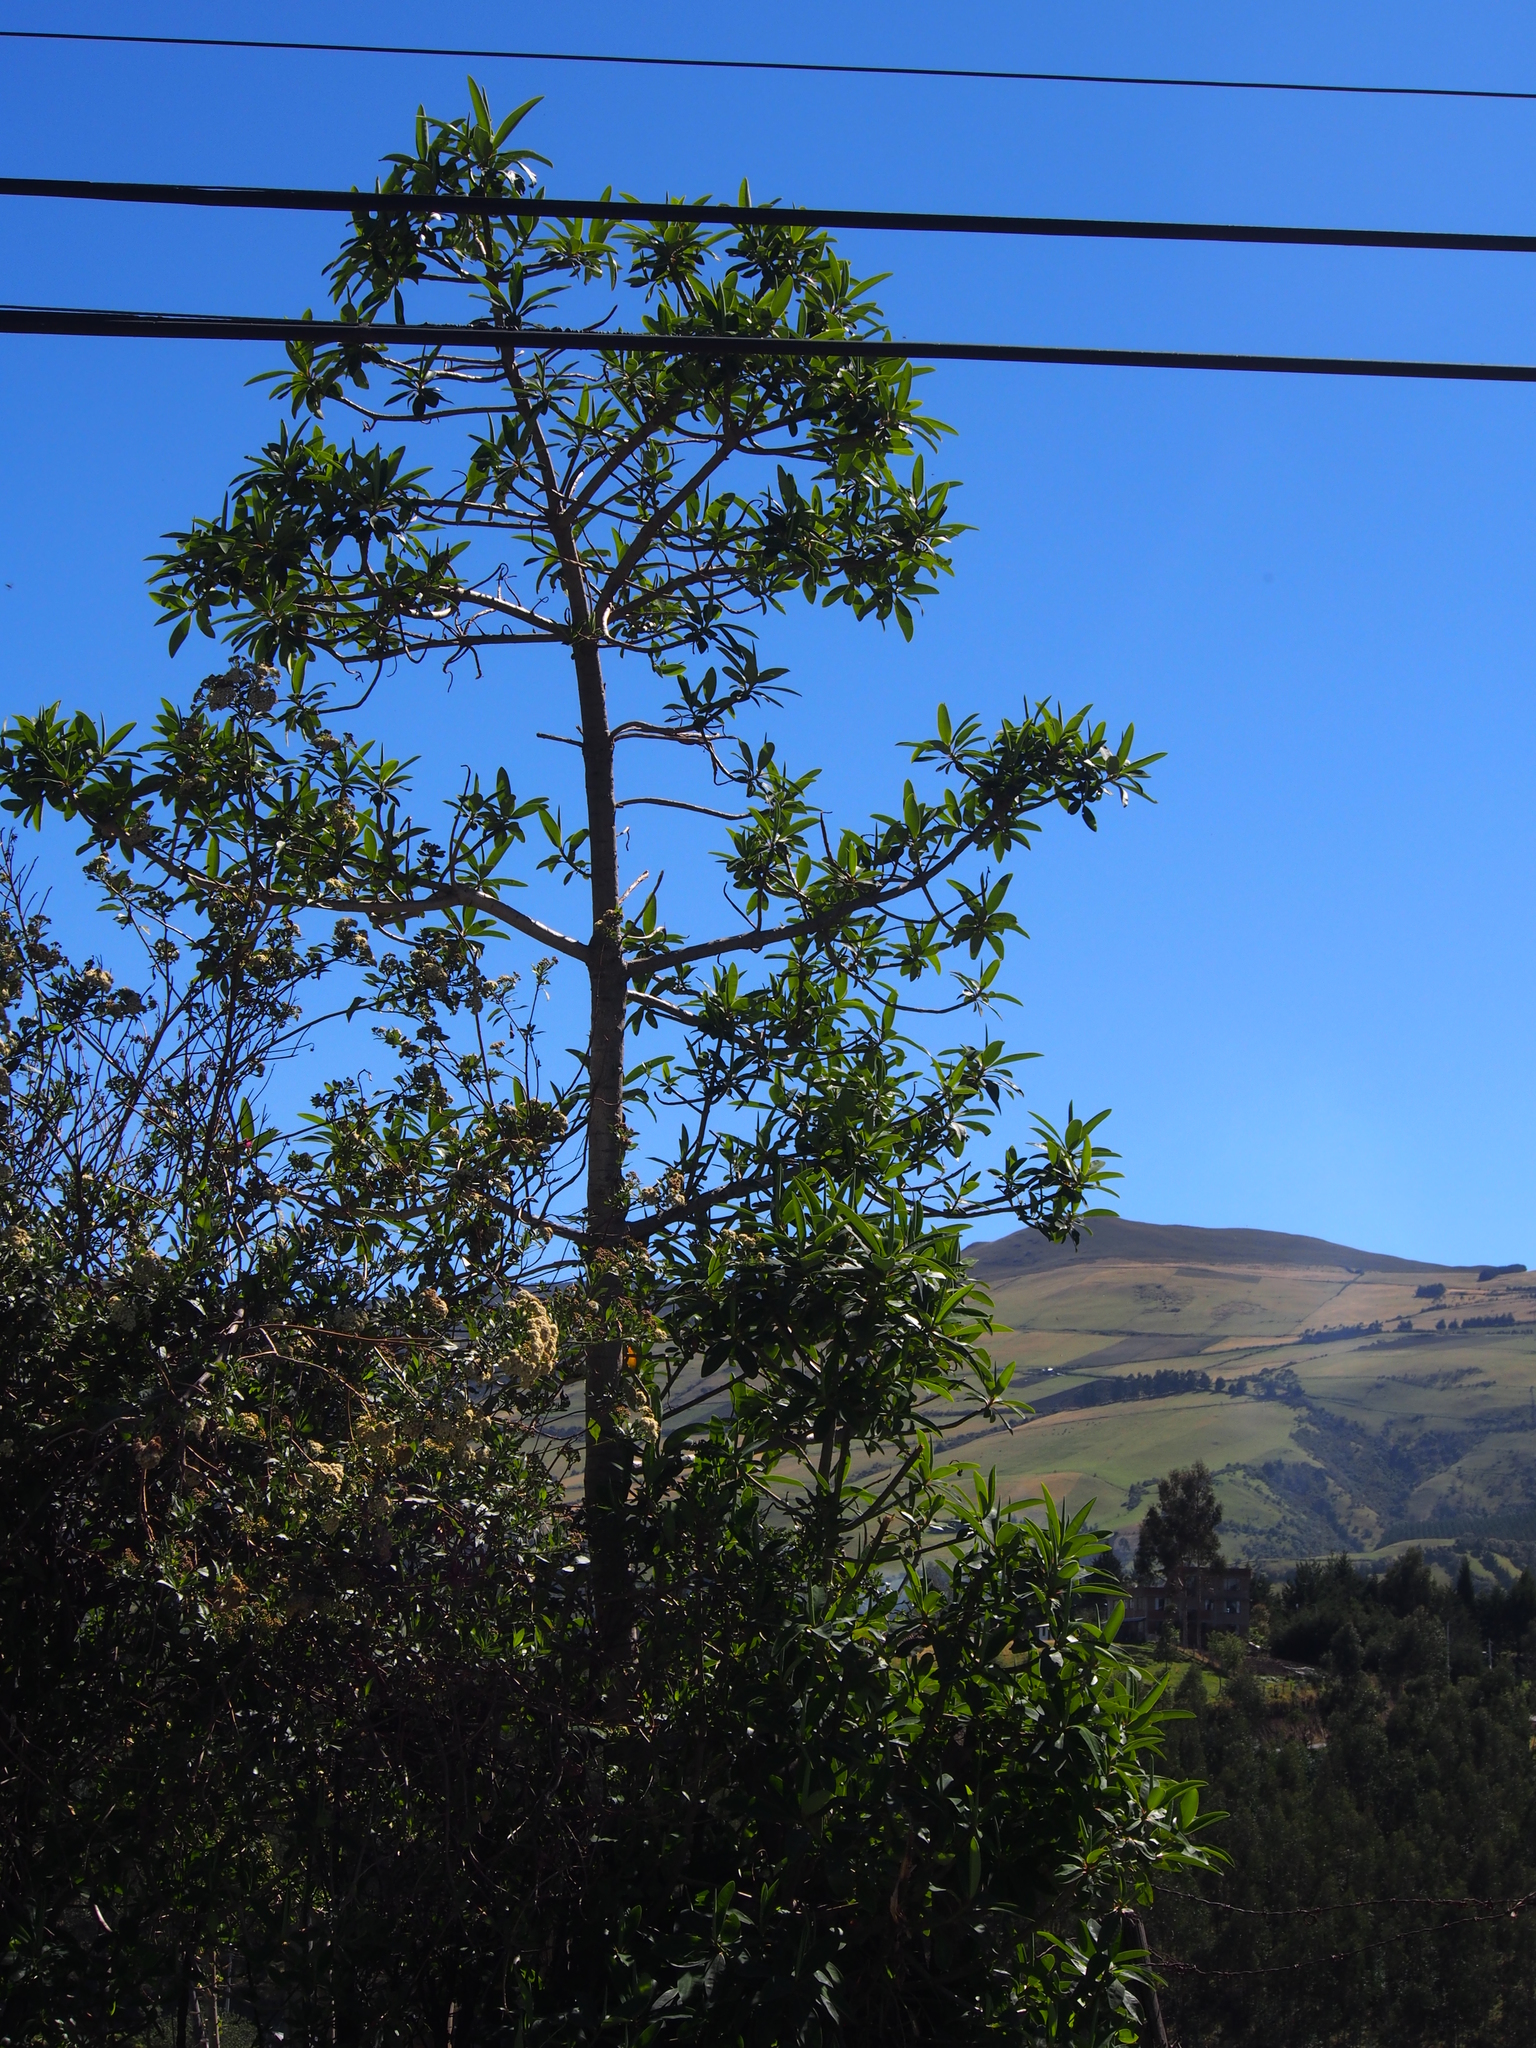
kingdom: Plantae
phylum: Tracheophyta
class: Magnoliopsida
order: Malpighiales
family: Euphorbiaceae
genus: Euphorbia
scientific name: Euphorbia laurifolia
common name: Lechero
